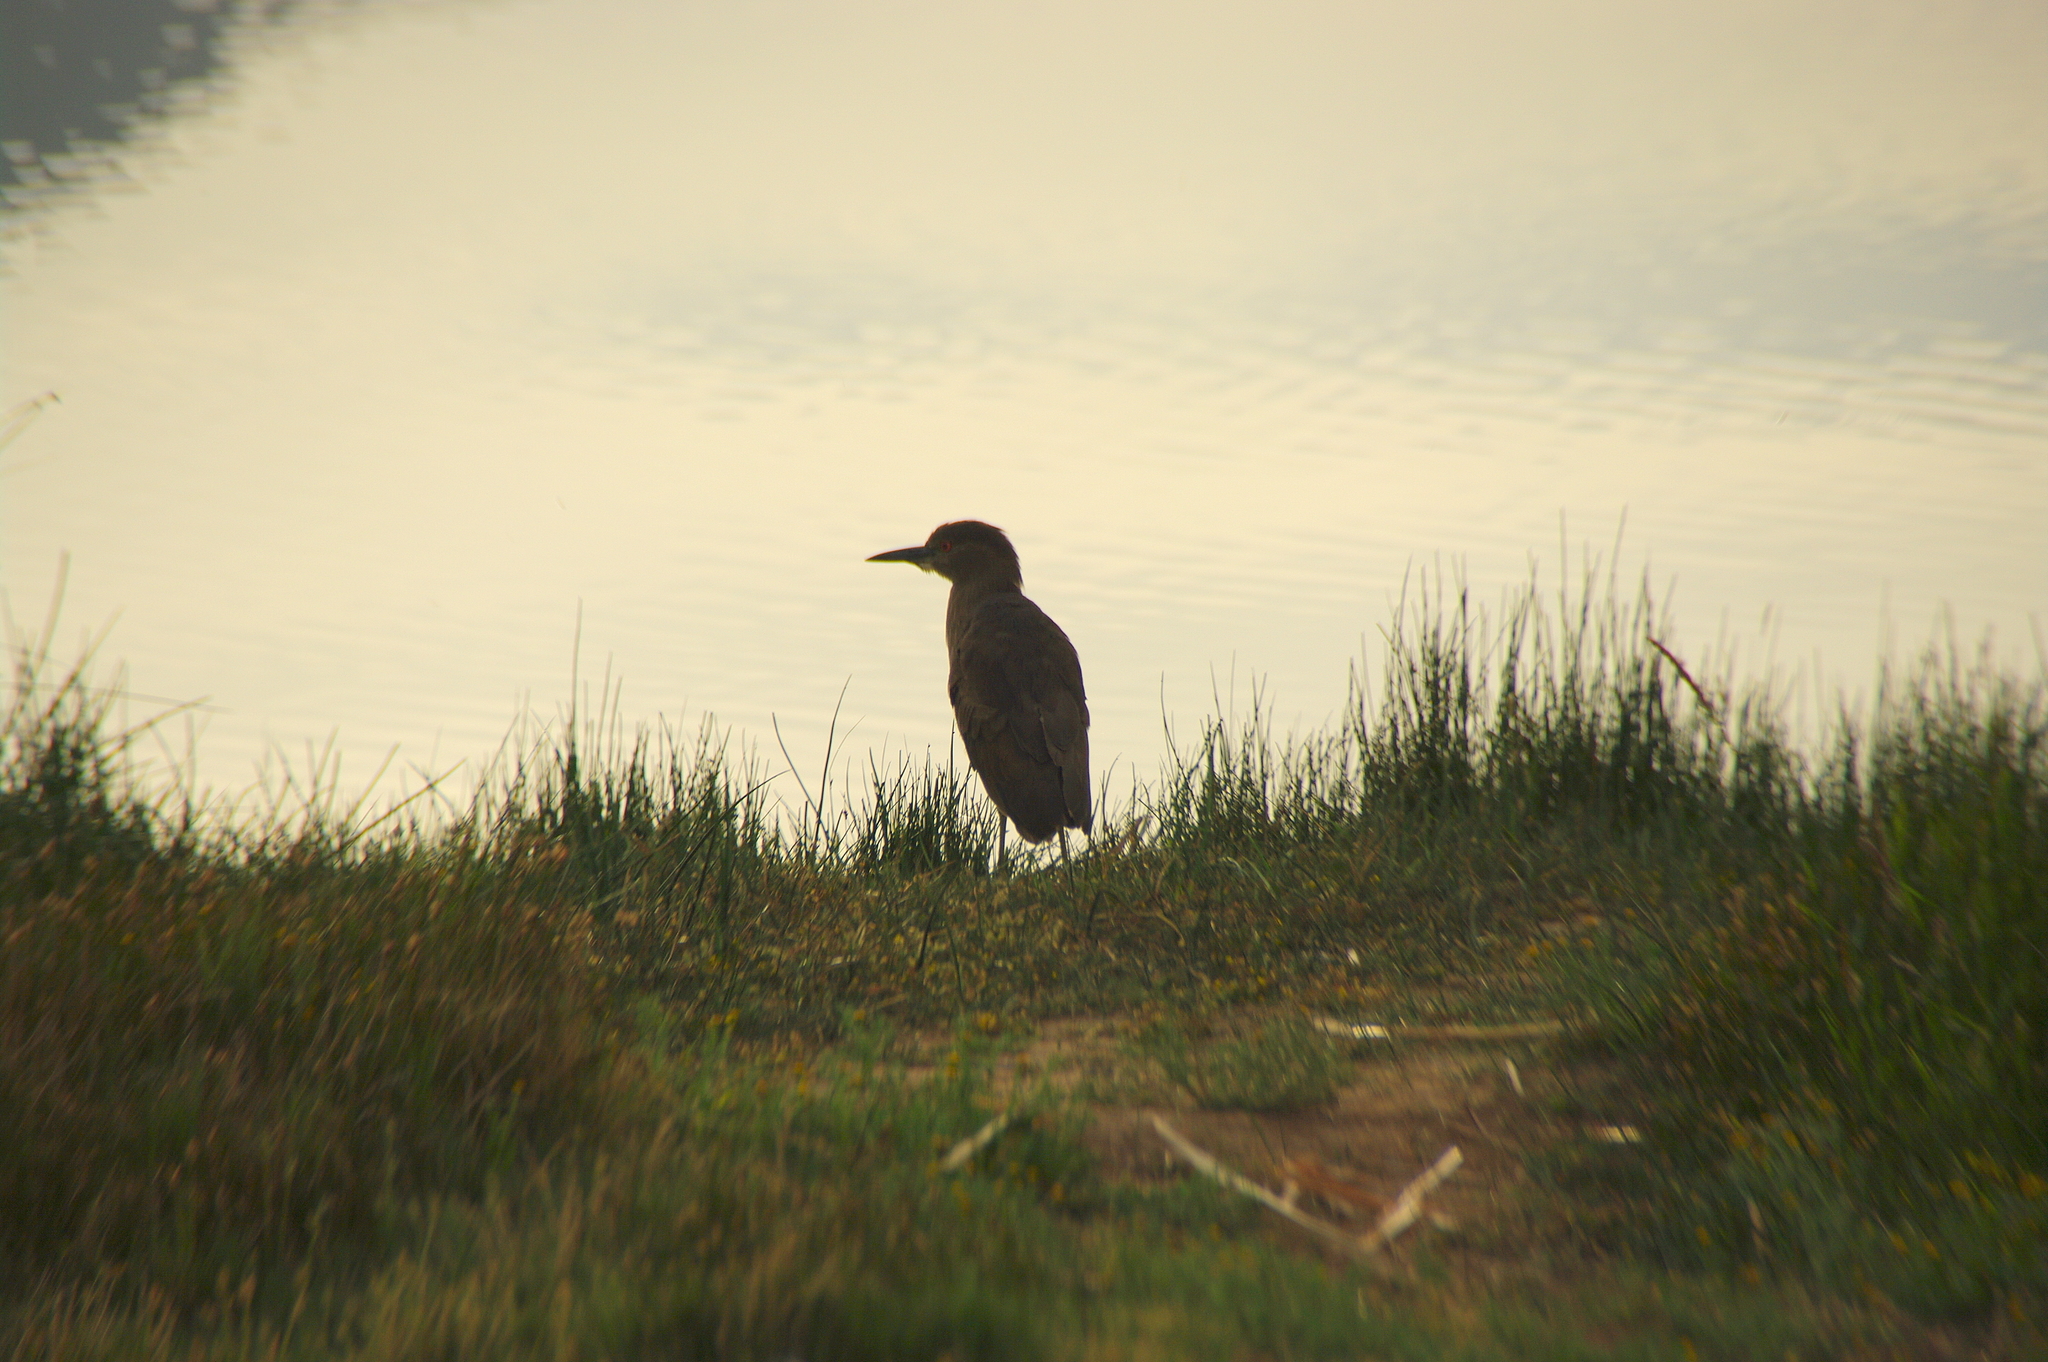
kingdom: Animalia
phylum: Chordata
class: Aves
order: Pelecaniformes
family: Ardeidae
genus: Nycticorax
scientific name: Nycticorax nycticorax
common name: Black-crowned night heron
